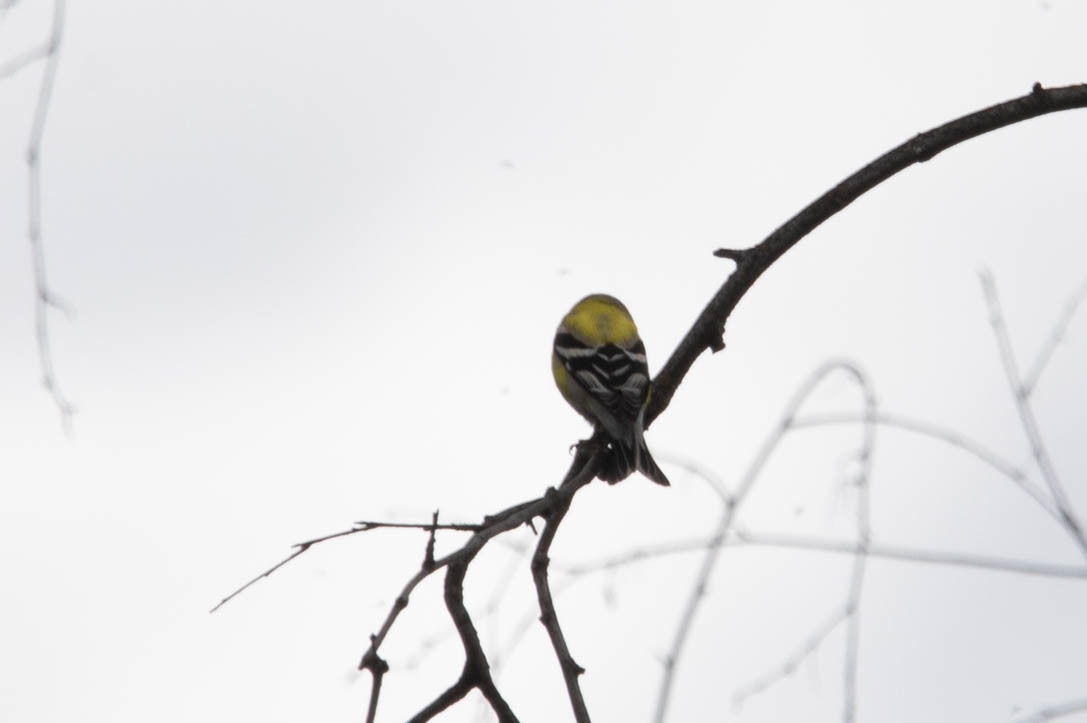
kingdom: Animalia
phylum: Chordata
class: Aves
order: Passeriformes
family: Fringillidae
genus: Spinus
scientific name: Spinus tristis
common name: American goldfinch
